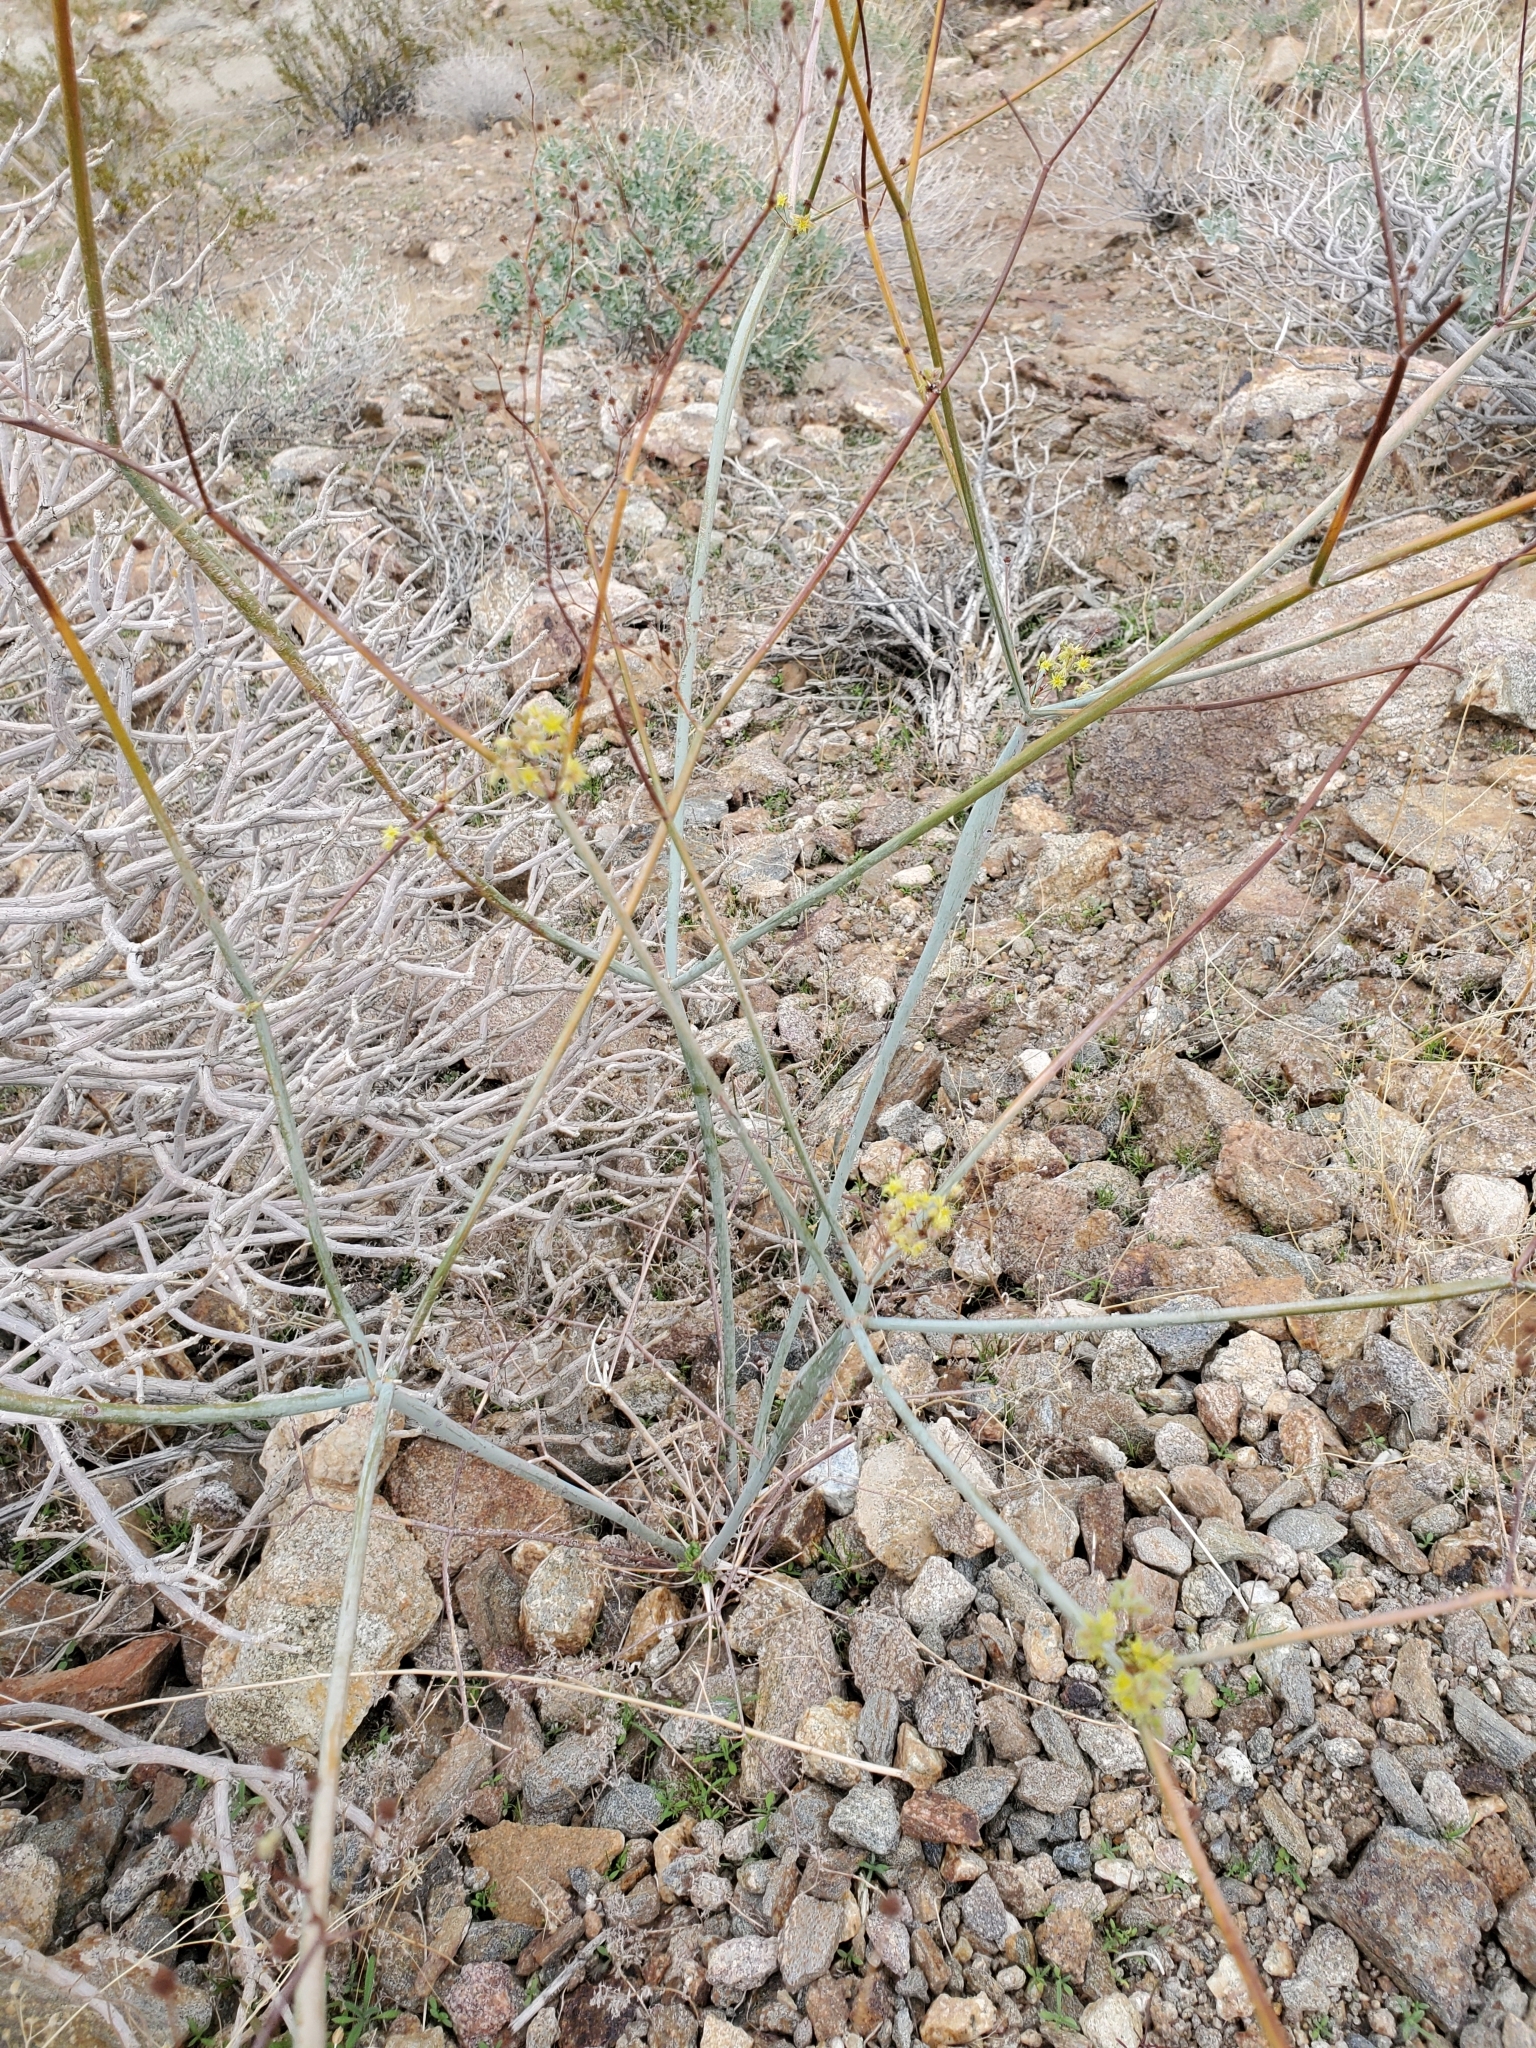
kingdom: Plantae
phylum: Tracheophyta
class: Magnoliopsida
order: Caryophyllales
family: Polygonaceae
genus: Eriogonum
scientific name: Eriogonum inflatum
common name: Desert trumpet
